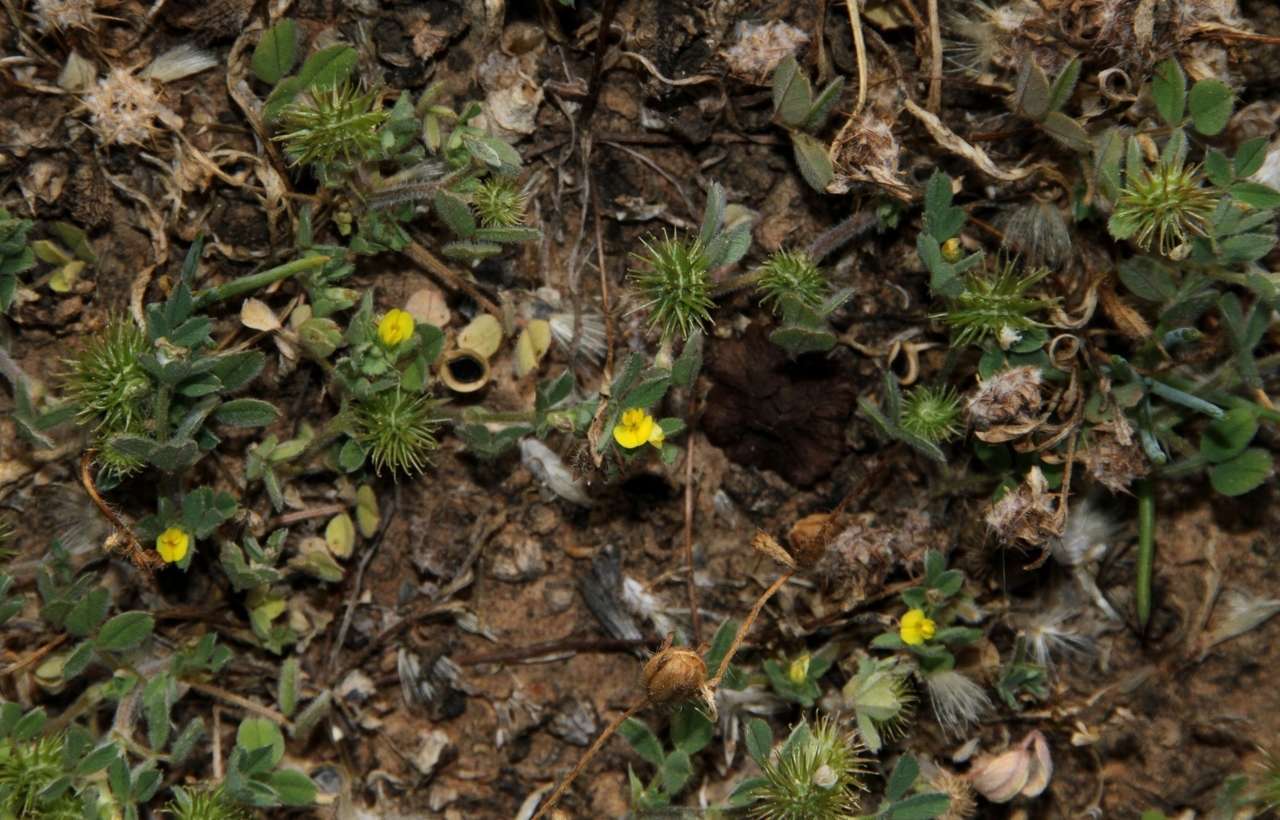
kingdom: Plantae
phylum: Tracheophyta
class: Magnoliopsida
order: Fabales
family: Fabaceae
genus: Medicago
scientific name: Medicago minima
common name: Little bur-clover
